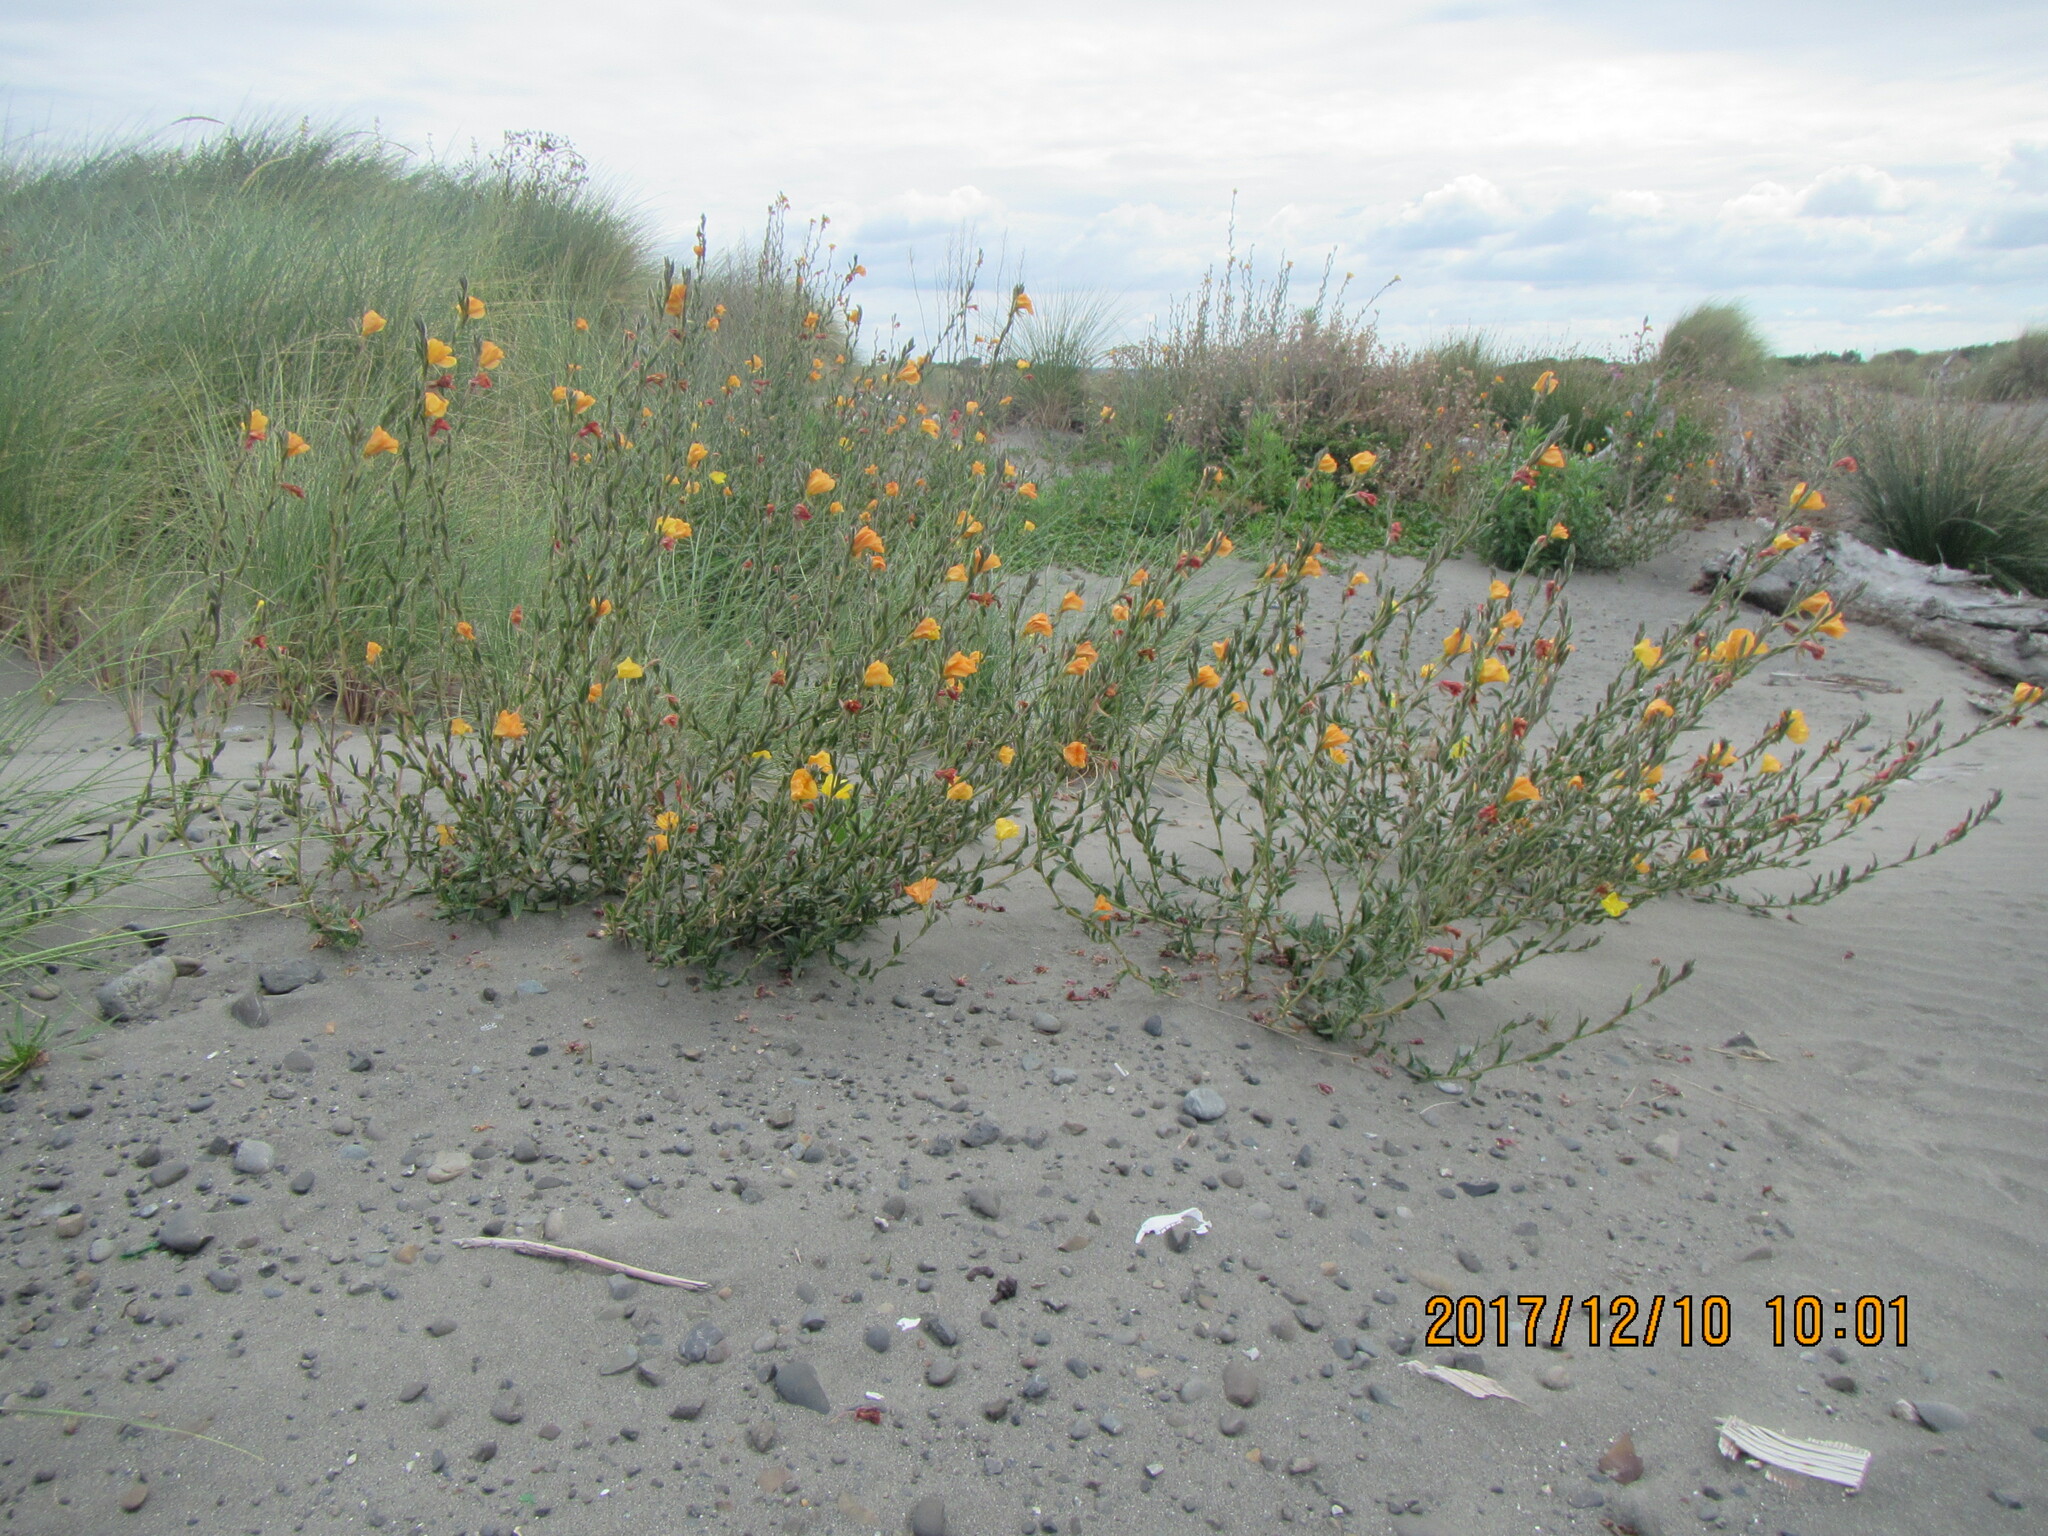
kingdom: Plantae
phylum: Tracheophyta
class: Magnoliopsida
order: Myrtales
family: Onagraceae
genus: Oenothera
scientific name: Oenothera stricta
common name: Fragrant evening-primrose
